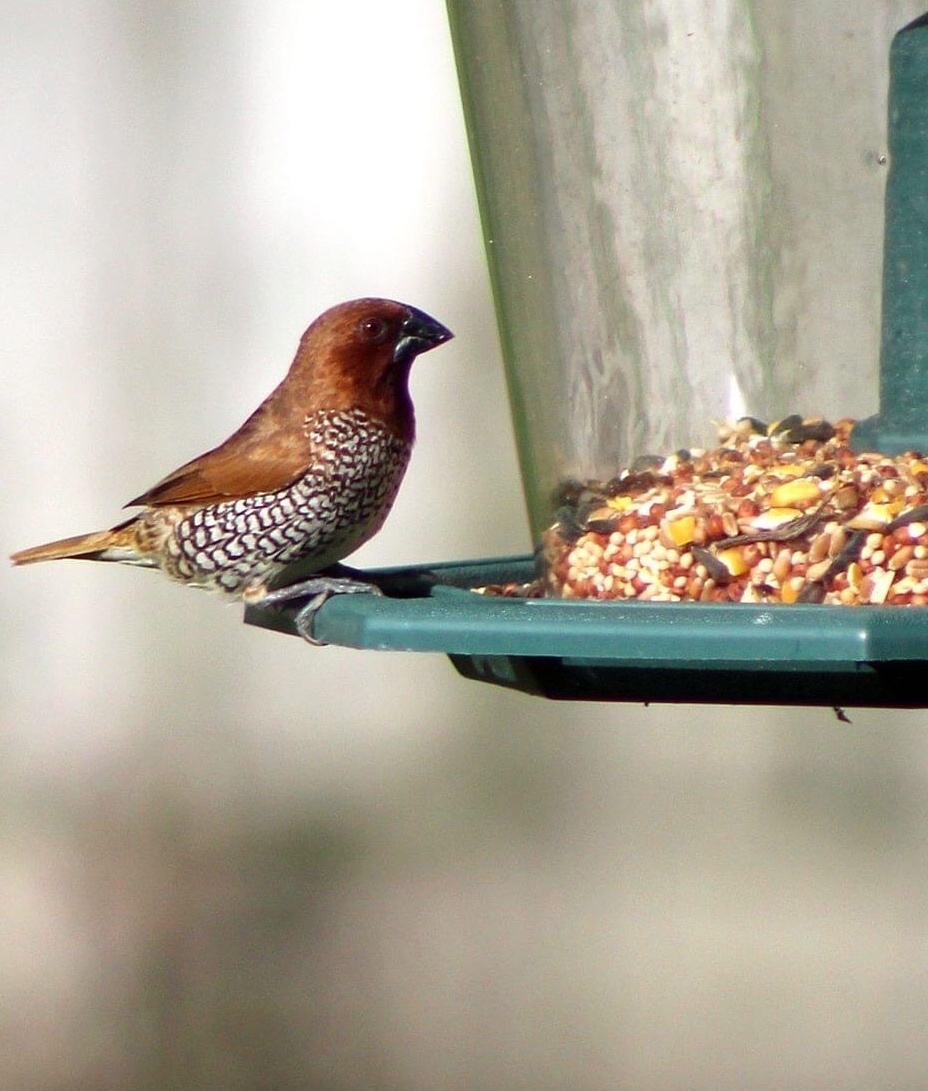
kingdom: Animalia
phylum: Chordata
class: Aves
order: Passeriformes
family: Estrildidae
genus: Lonchura
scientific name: Lonchura punctulata
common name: Scaly-breasted munia
